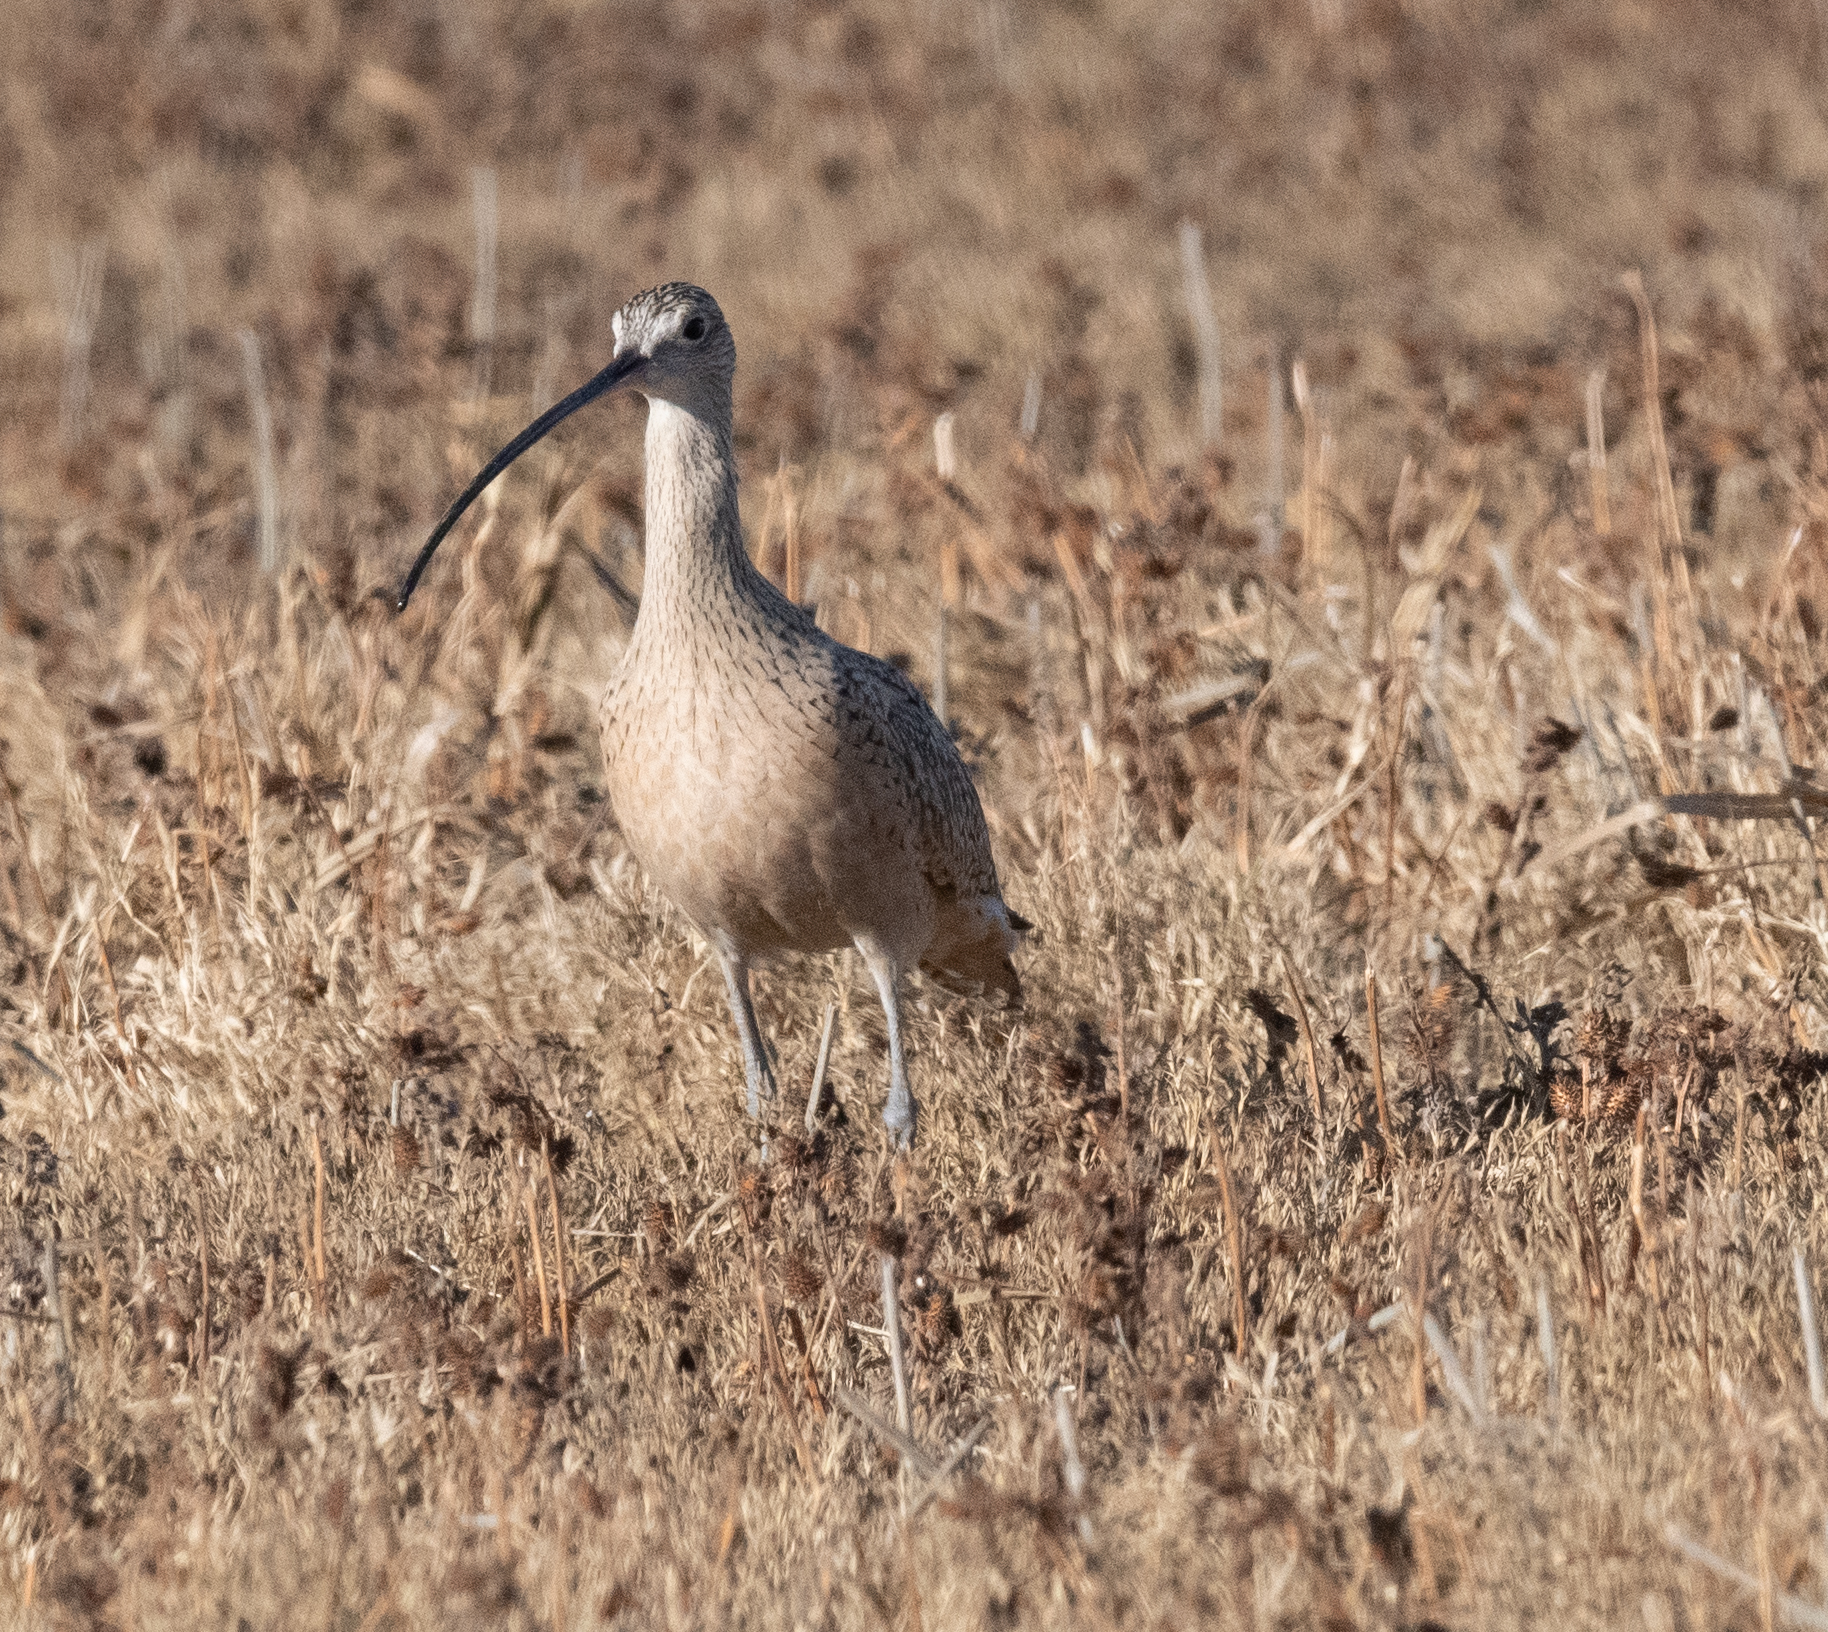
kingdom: Animalia
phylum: Chordata
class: Aves
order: Charadriiformes
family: Scolopacidae
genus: Numenius
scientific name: Numenius americanus
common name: Long-billed curlew
